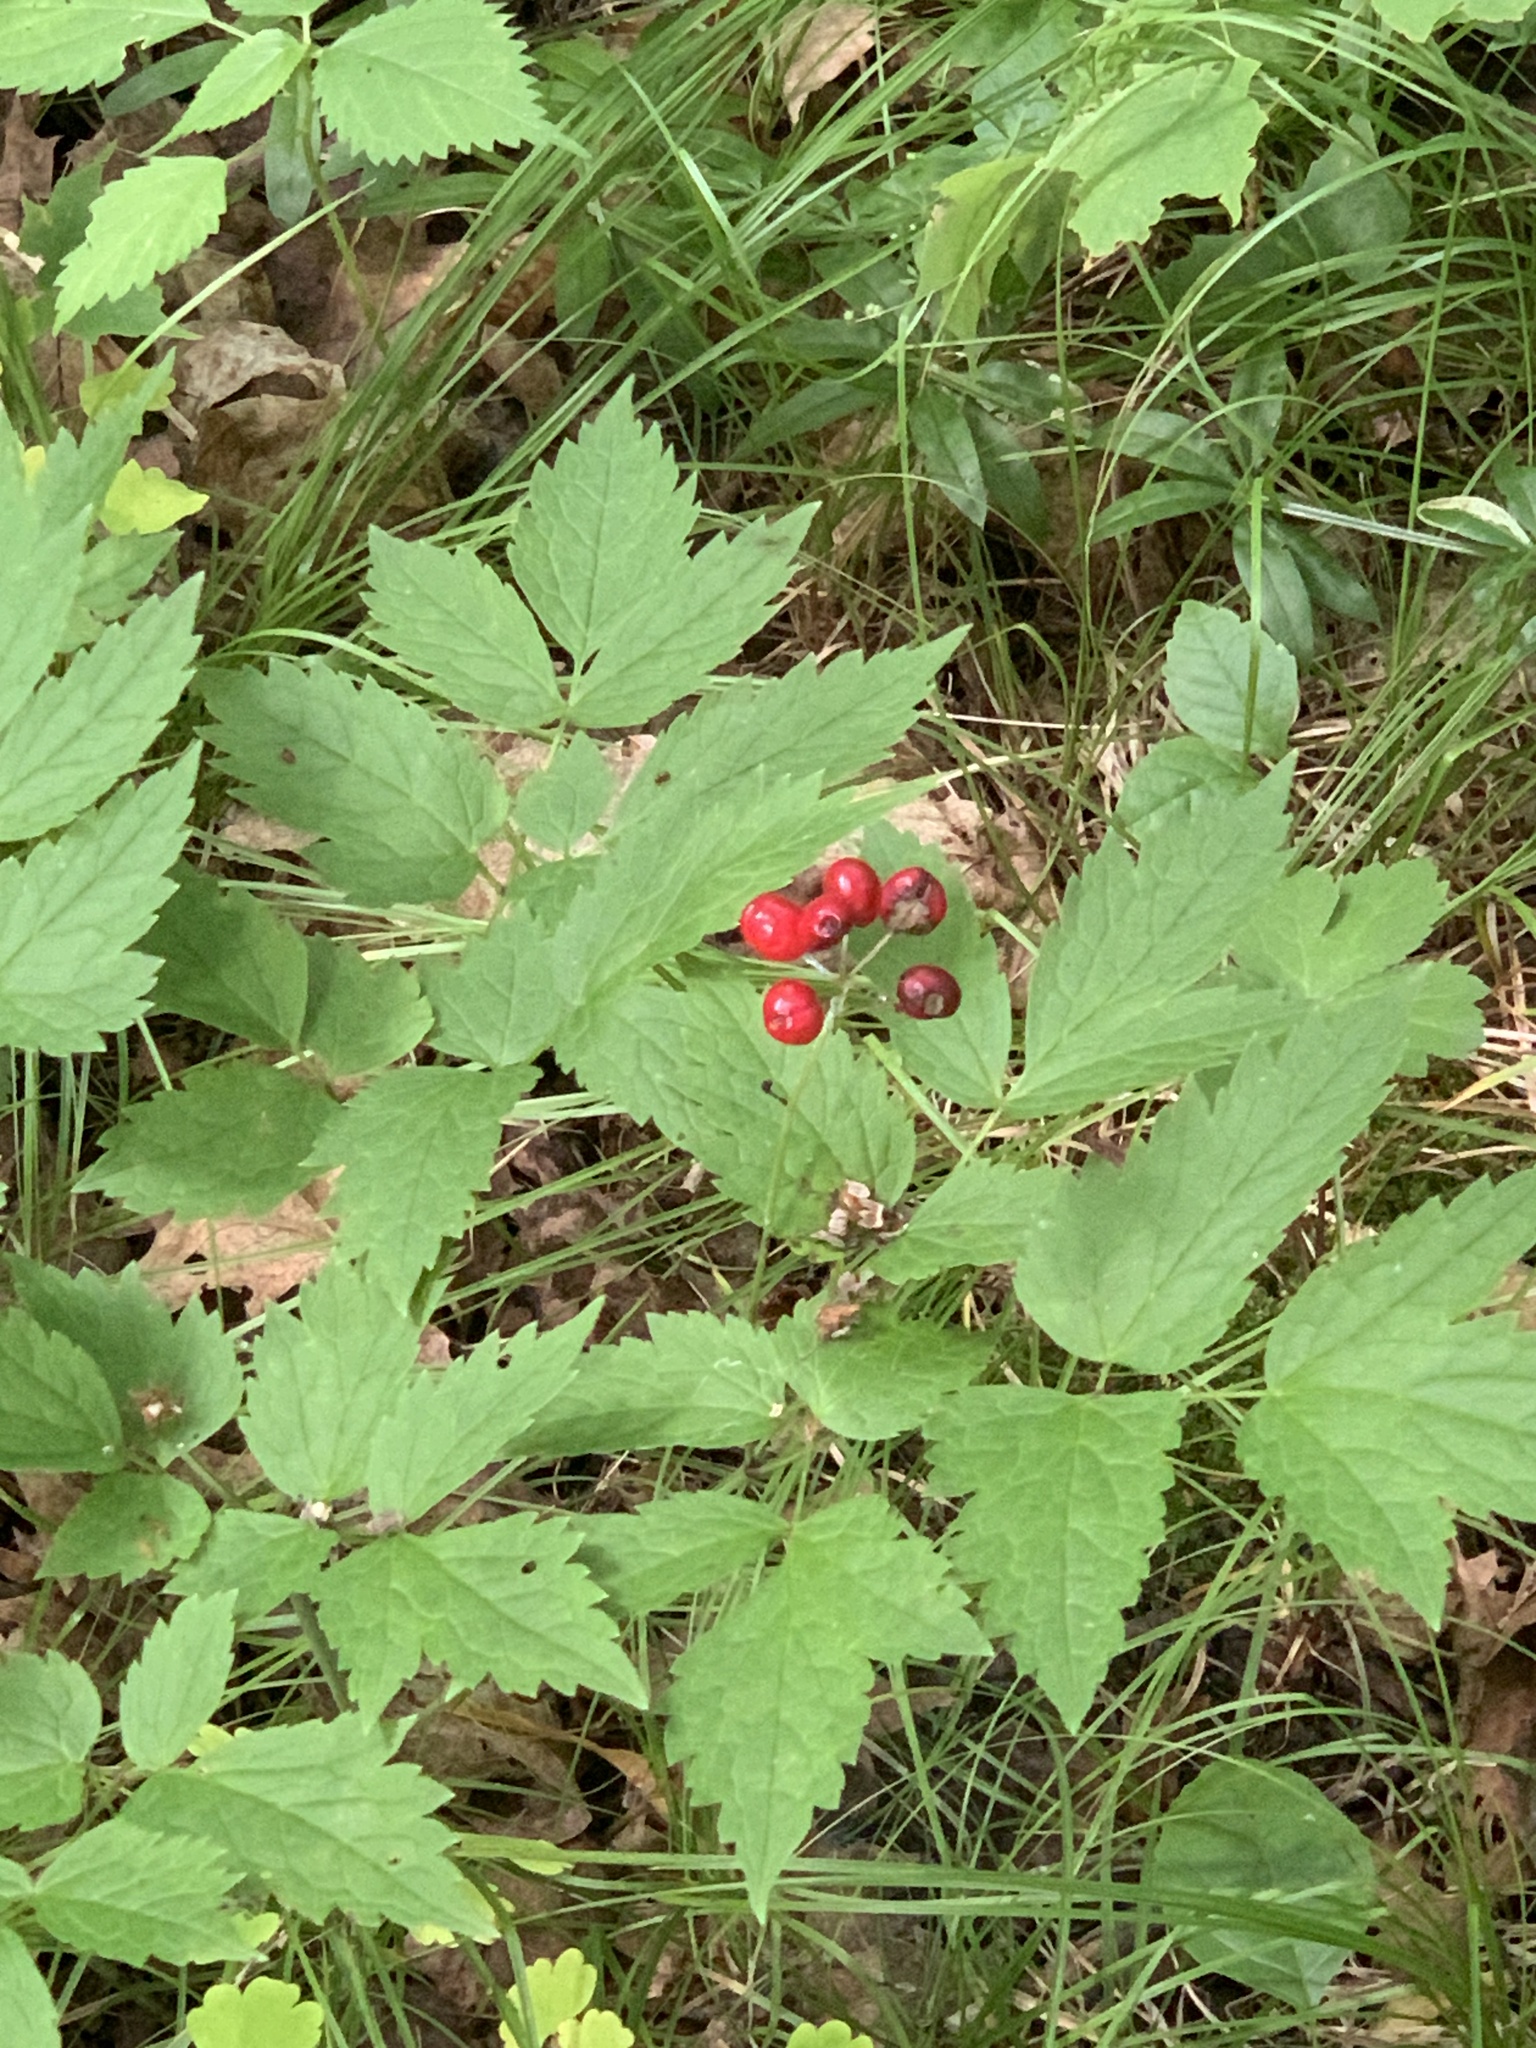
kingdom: Plantae
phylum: Tracheophyta
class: Magnoliopsida
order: Ranunculales
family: Ranunculaceae
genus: Actaea
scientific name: Actaea rubra
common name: Red baneberry
